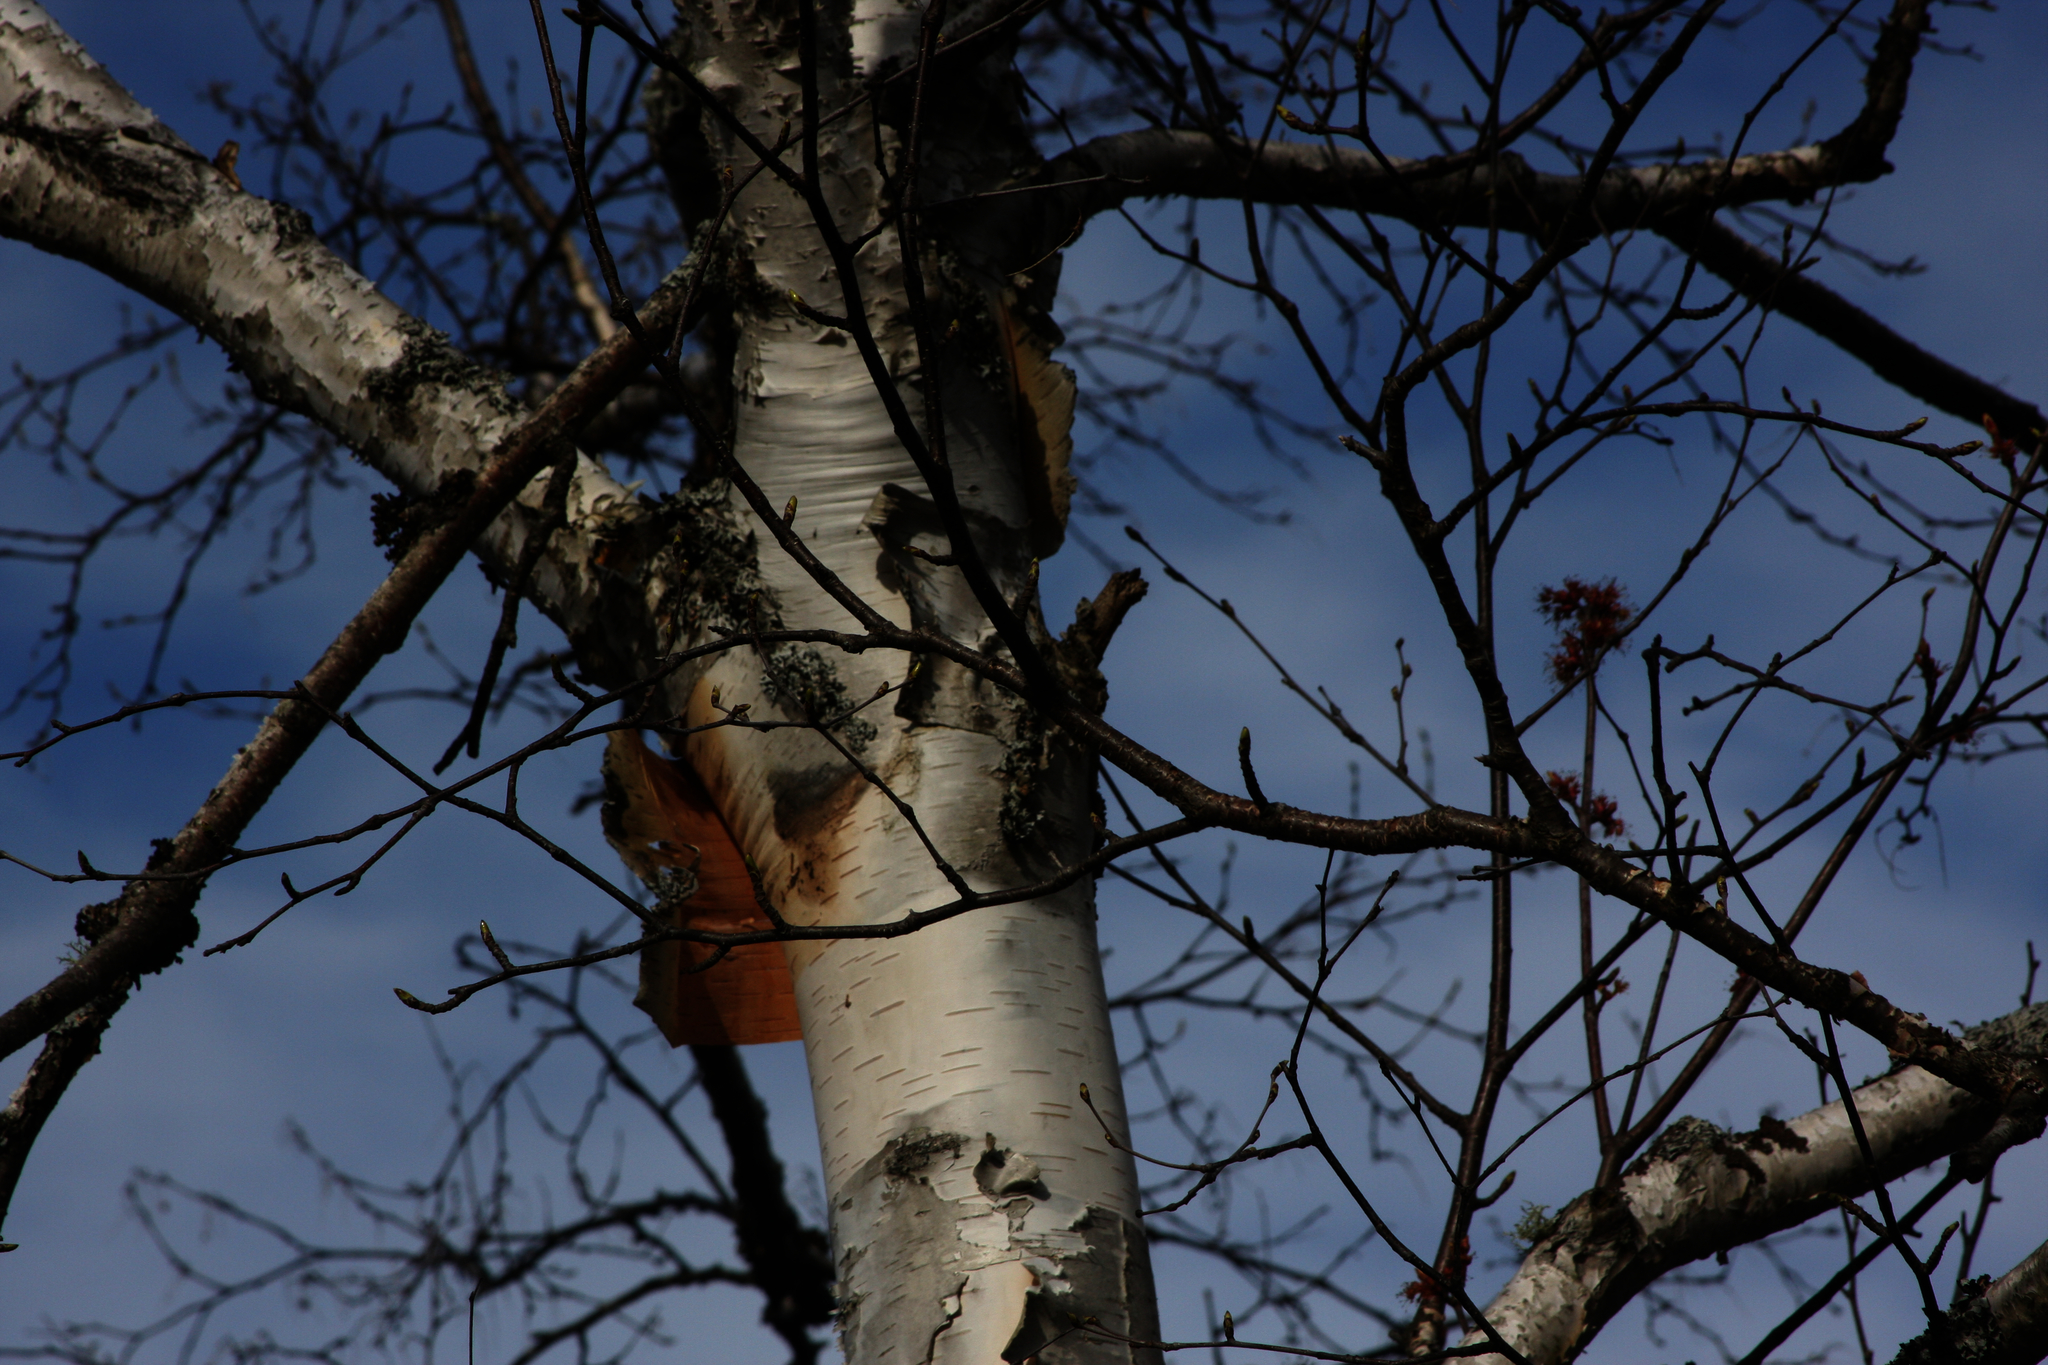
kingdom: Plantae
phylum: Tracheophyta
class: Magnoliopsida
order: Fagales
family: Betulaceae
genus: Betula
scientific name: Betula papyrifera
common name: Paper birch
